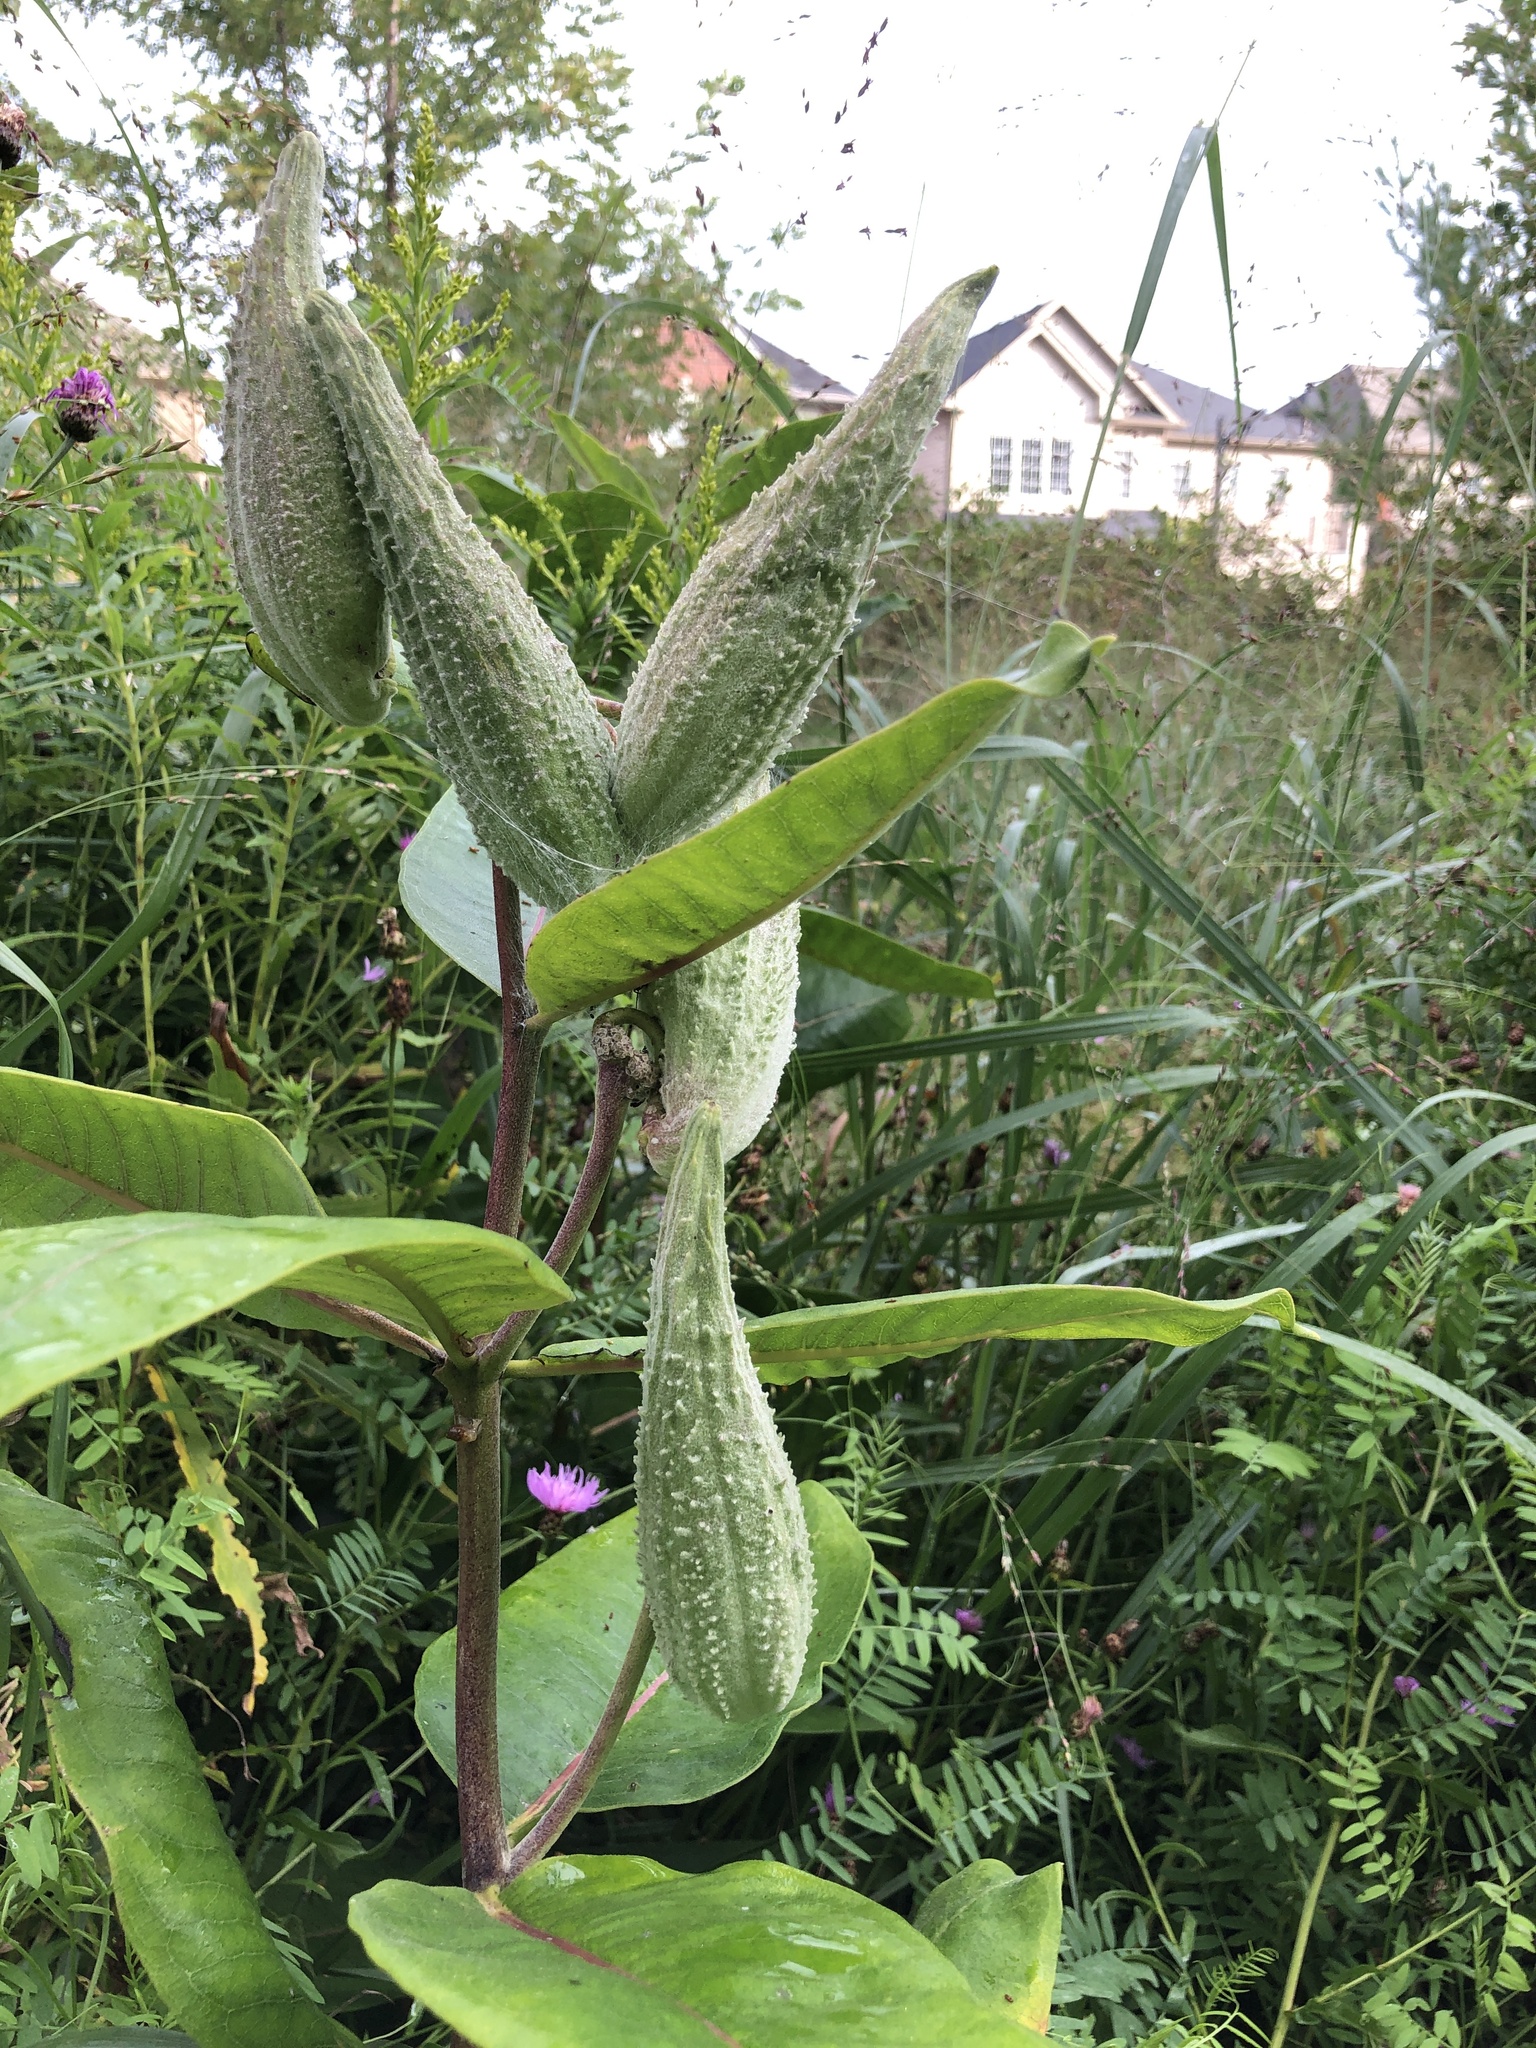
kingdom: Plantae
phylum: Tracheophyta
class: Magnoliopsida
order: Gentianales
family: Apocynaceae
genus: Asclepias
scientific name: Asclepias syriaca
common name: Common milkweed
